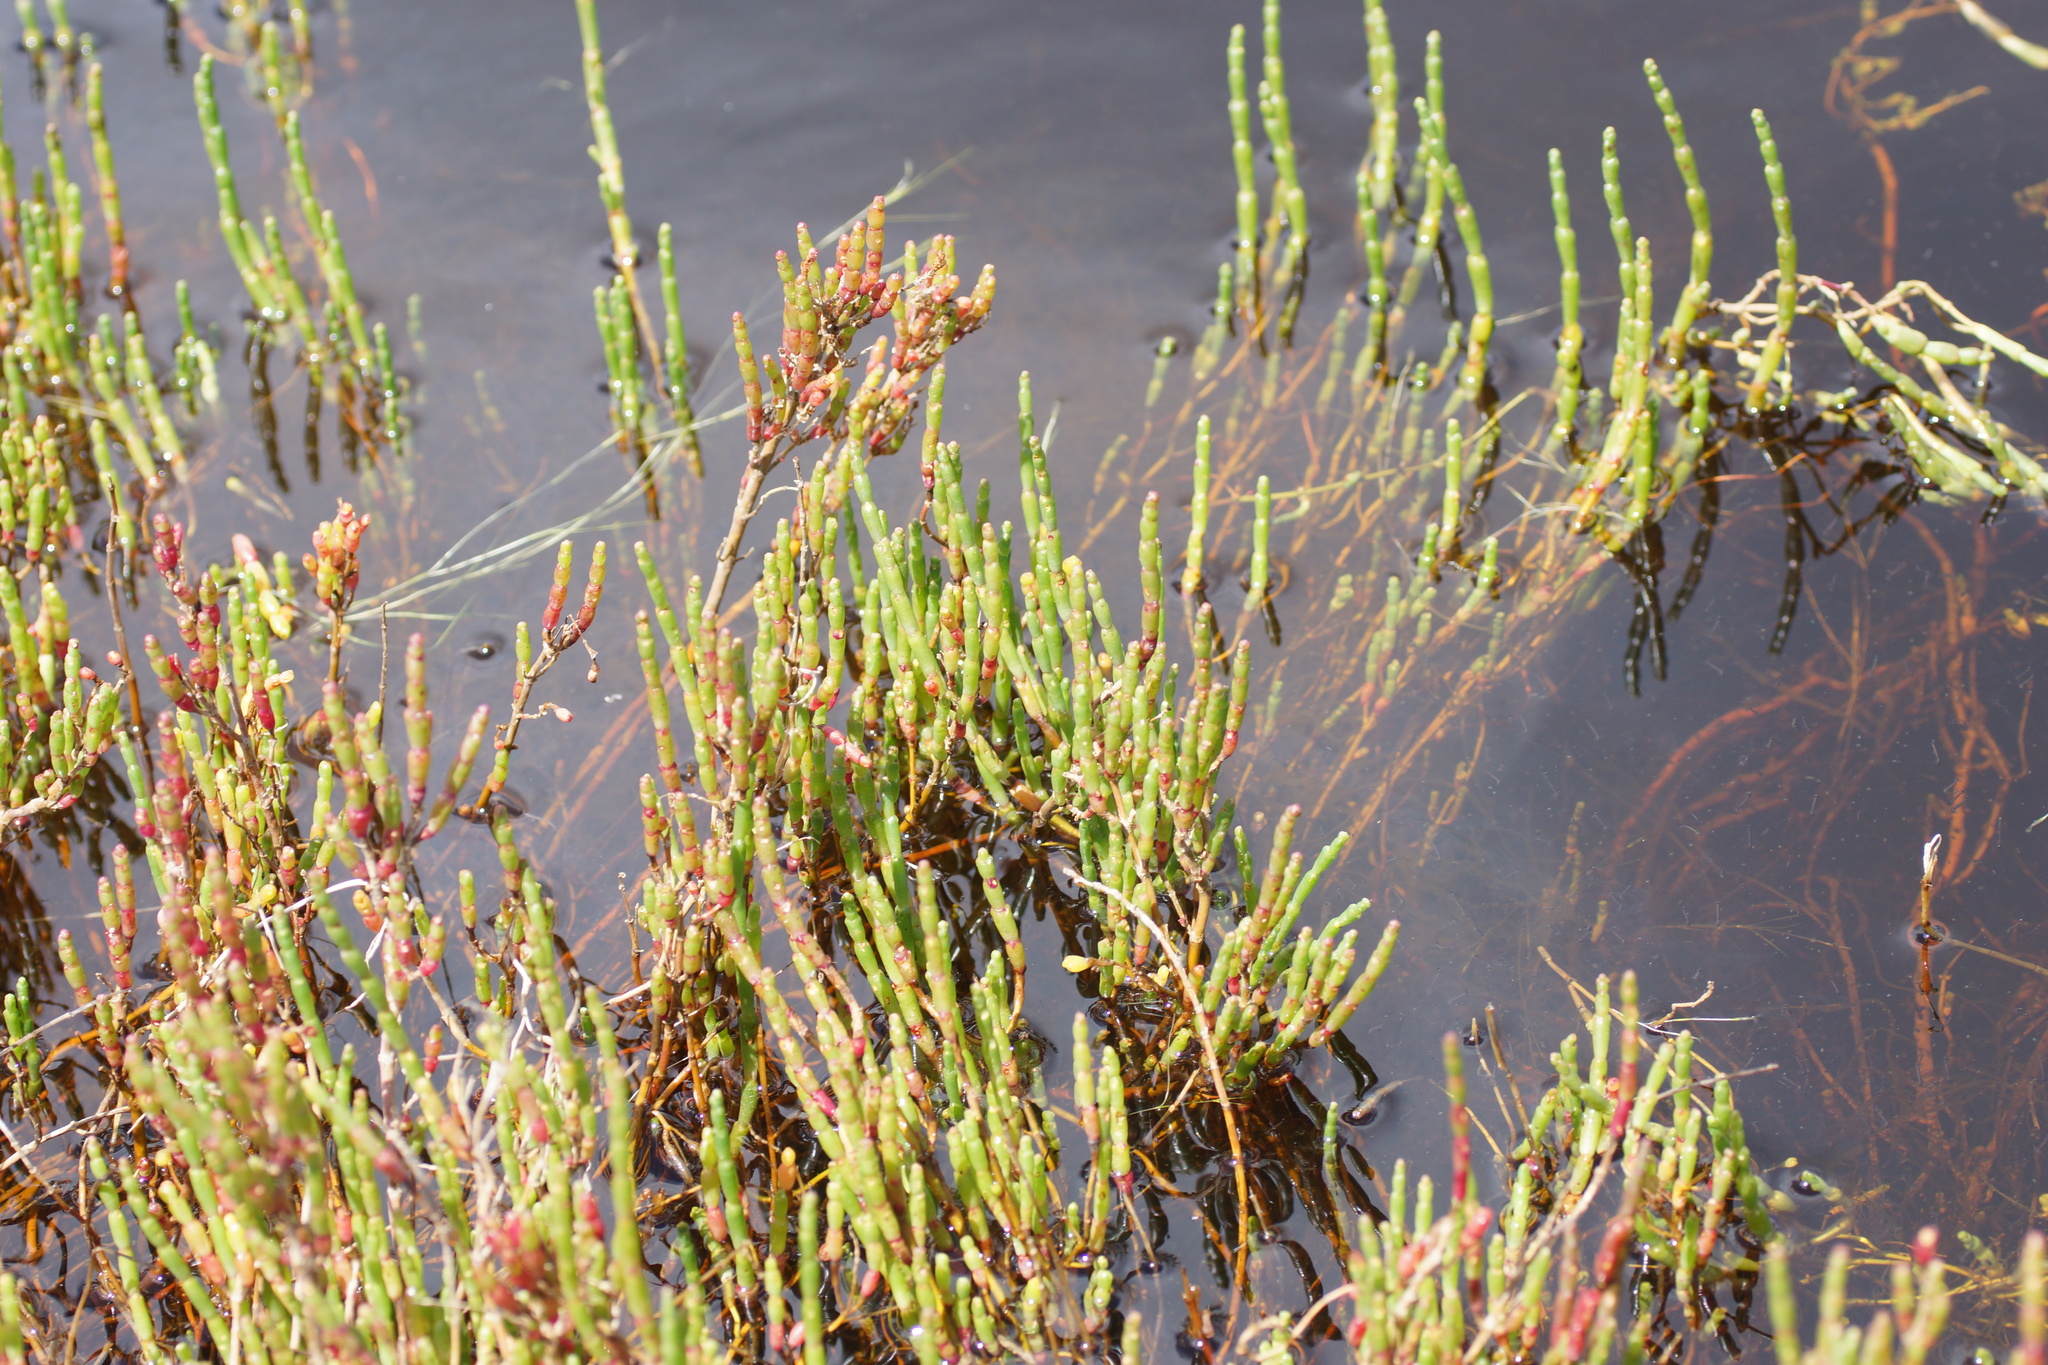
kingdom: Plantae
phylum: Tracheophyta
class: Magnoliopsida
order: Caryophyllales
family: Amaranthaceae
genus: Salicornia
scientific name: Salicornia quinqueflora
